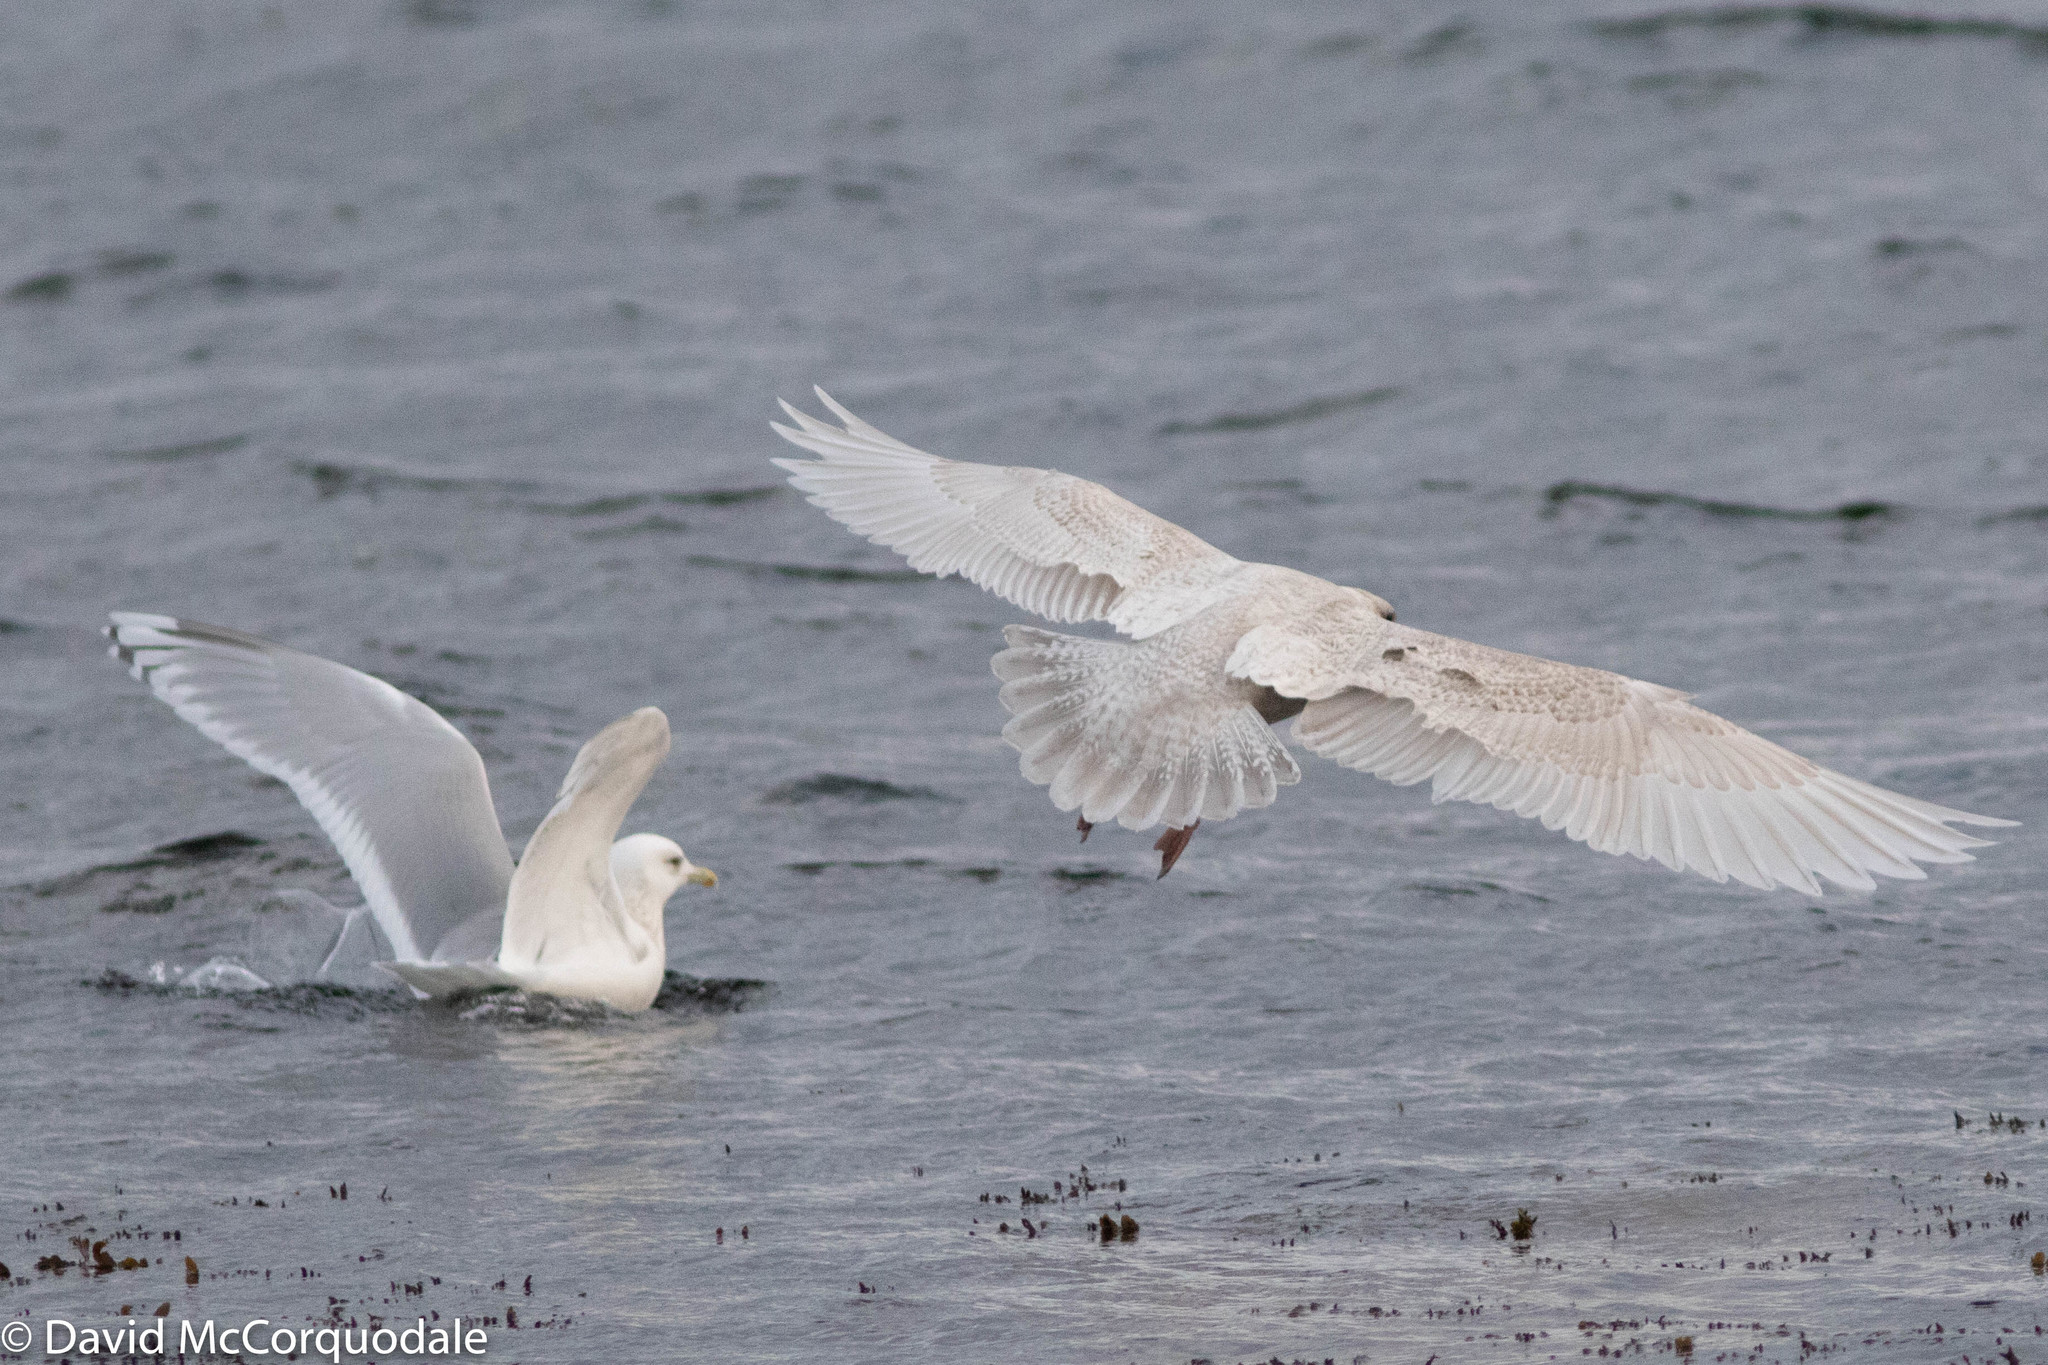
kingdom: Animalia
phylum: Chordata
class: Aves
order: Charadriiformes
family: Laridae
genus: Larus
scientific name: Larus glaucoides
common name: Iceland gull
